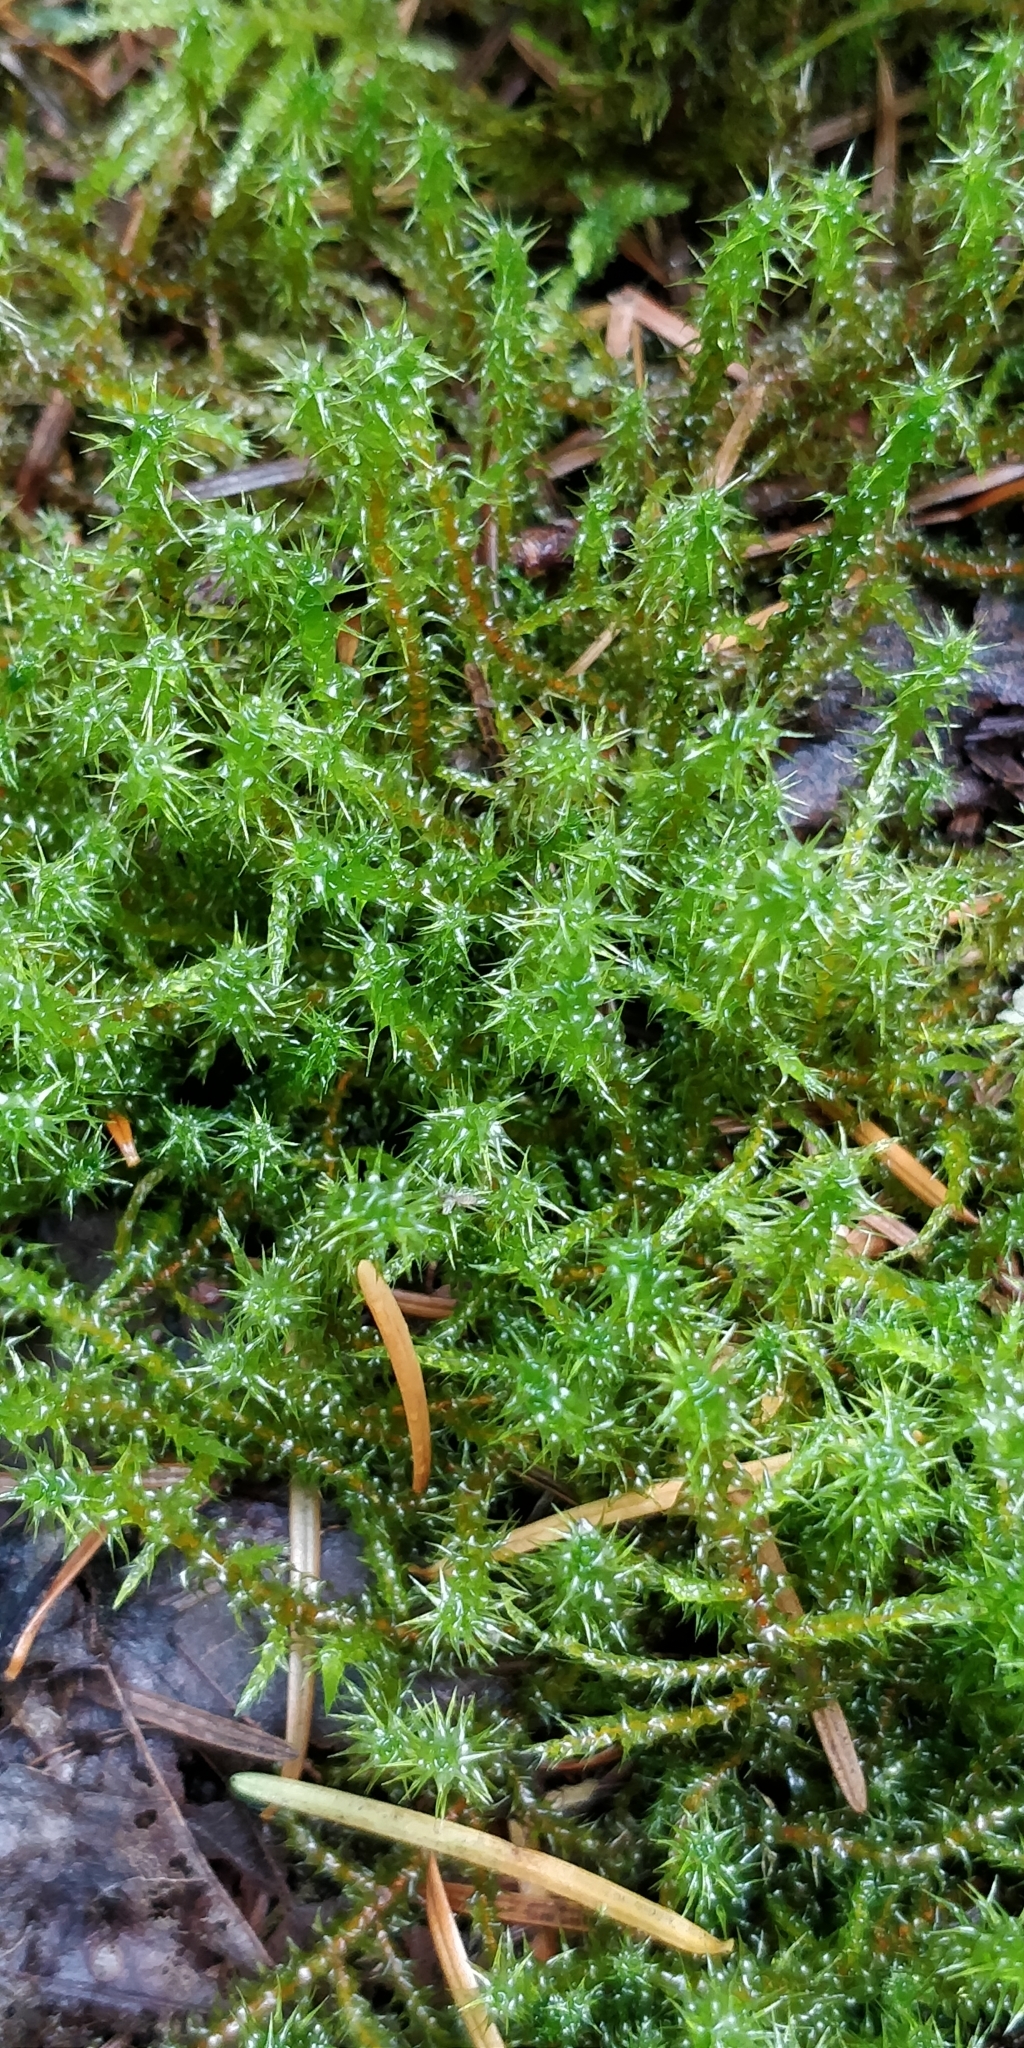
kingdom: Plantae
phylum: Bryophyta
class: Bryopsida
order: Hypnales
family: Hylocomiaceae
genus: Rhytidiadelphus
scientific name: Rhytidiadelphus squarrosus
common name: Springy turf-moss
